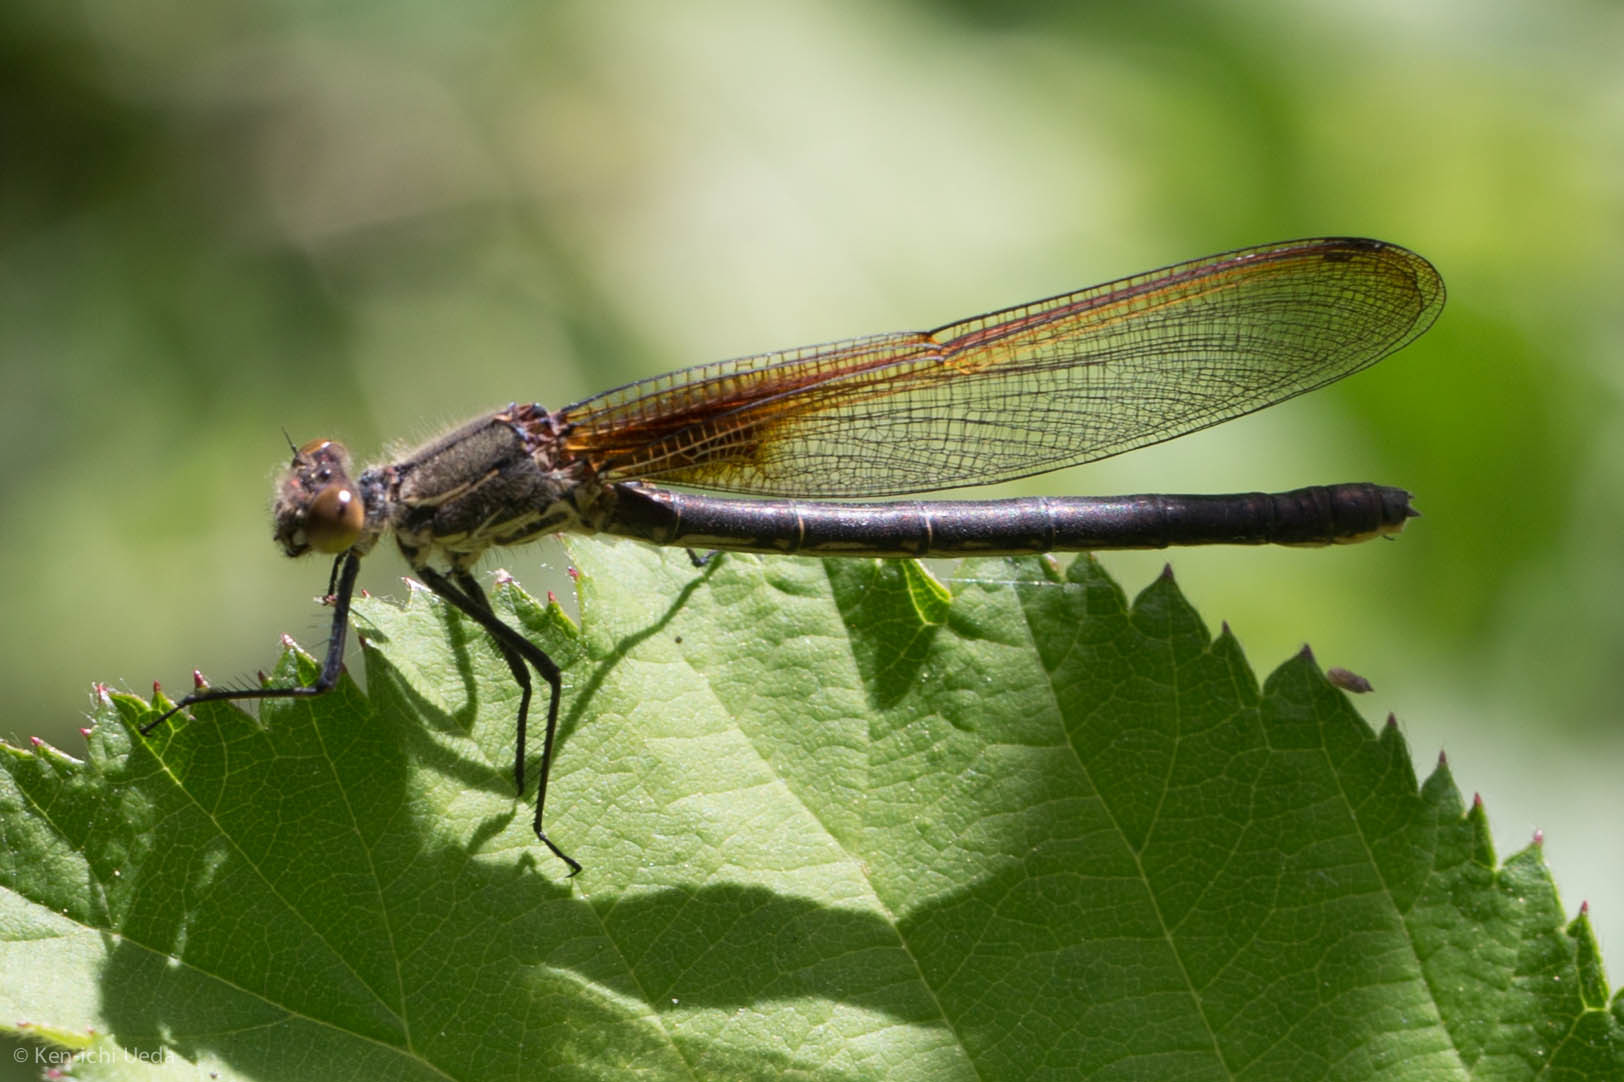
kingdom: Animalia
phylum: Arthropoda
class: Insecta
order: Odonata
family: Calopterygidae
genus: Hetaerina
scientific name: Hetaerina americana
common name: American rubyspot
